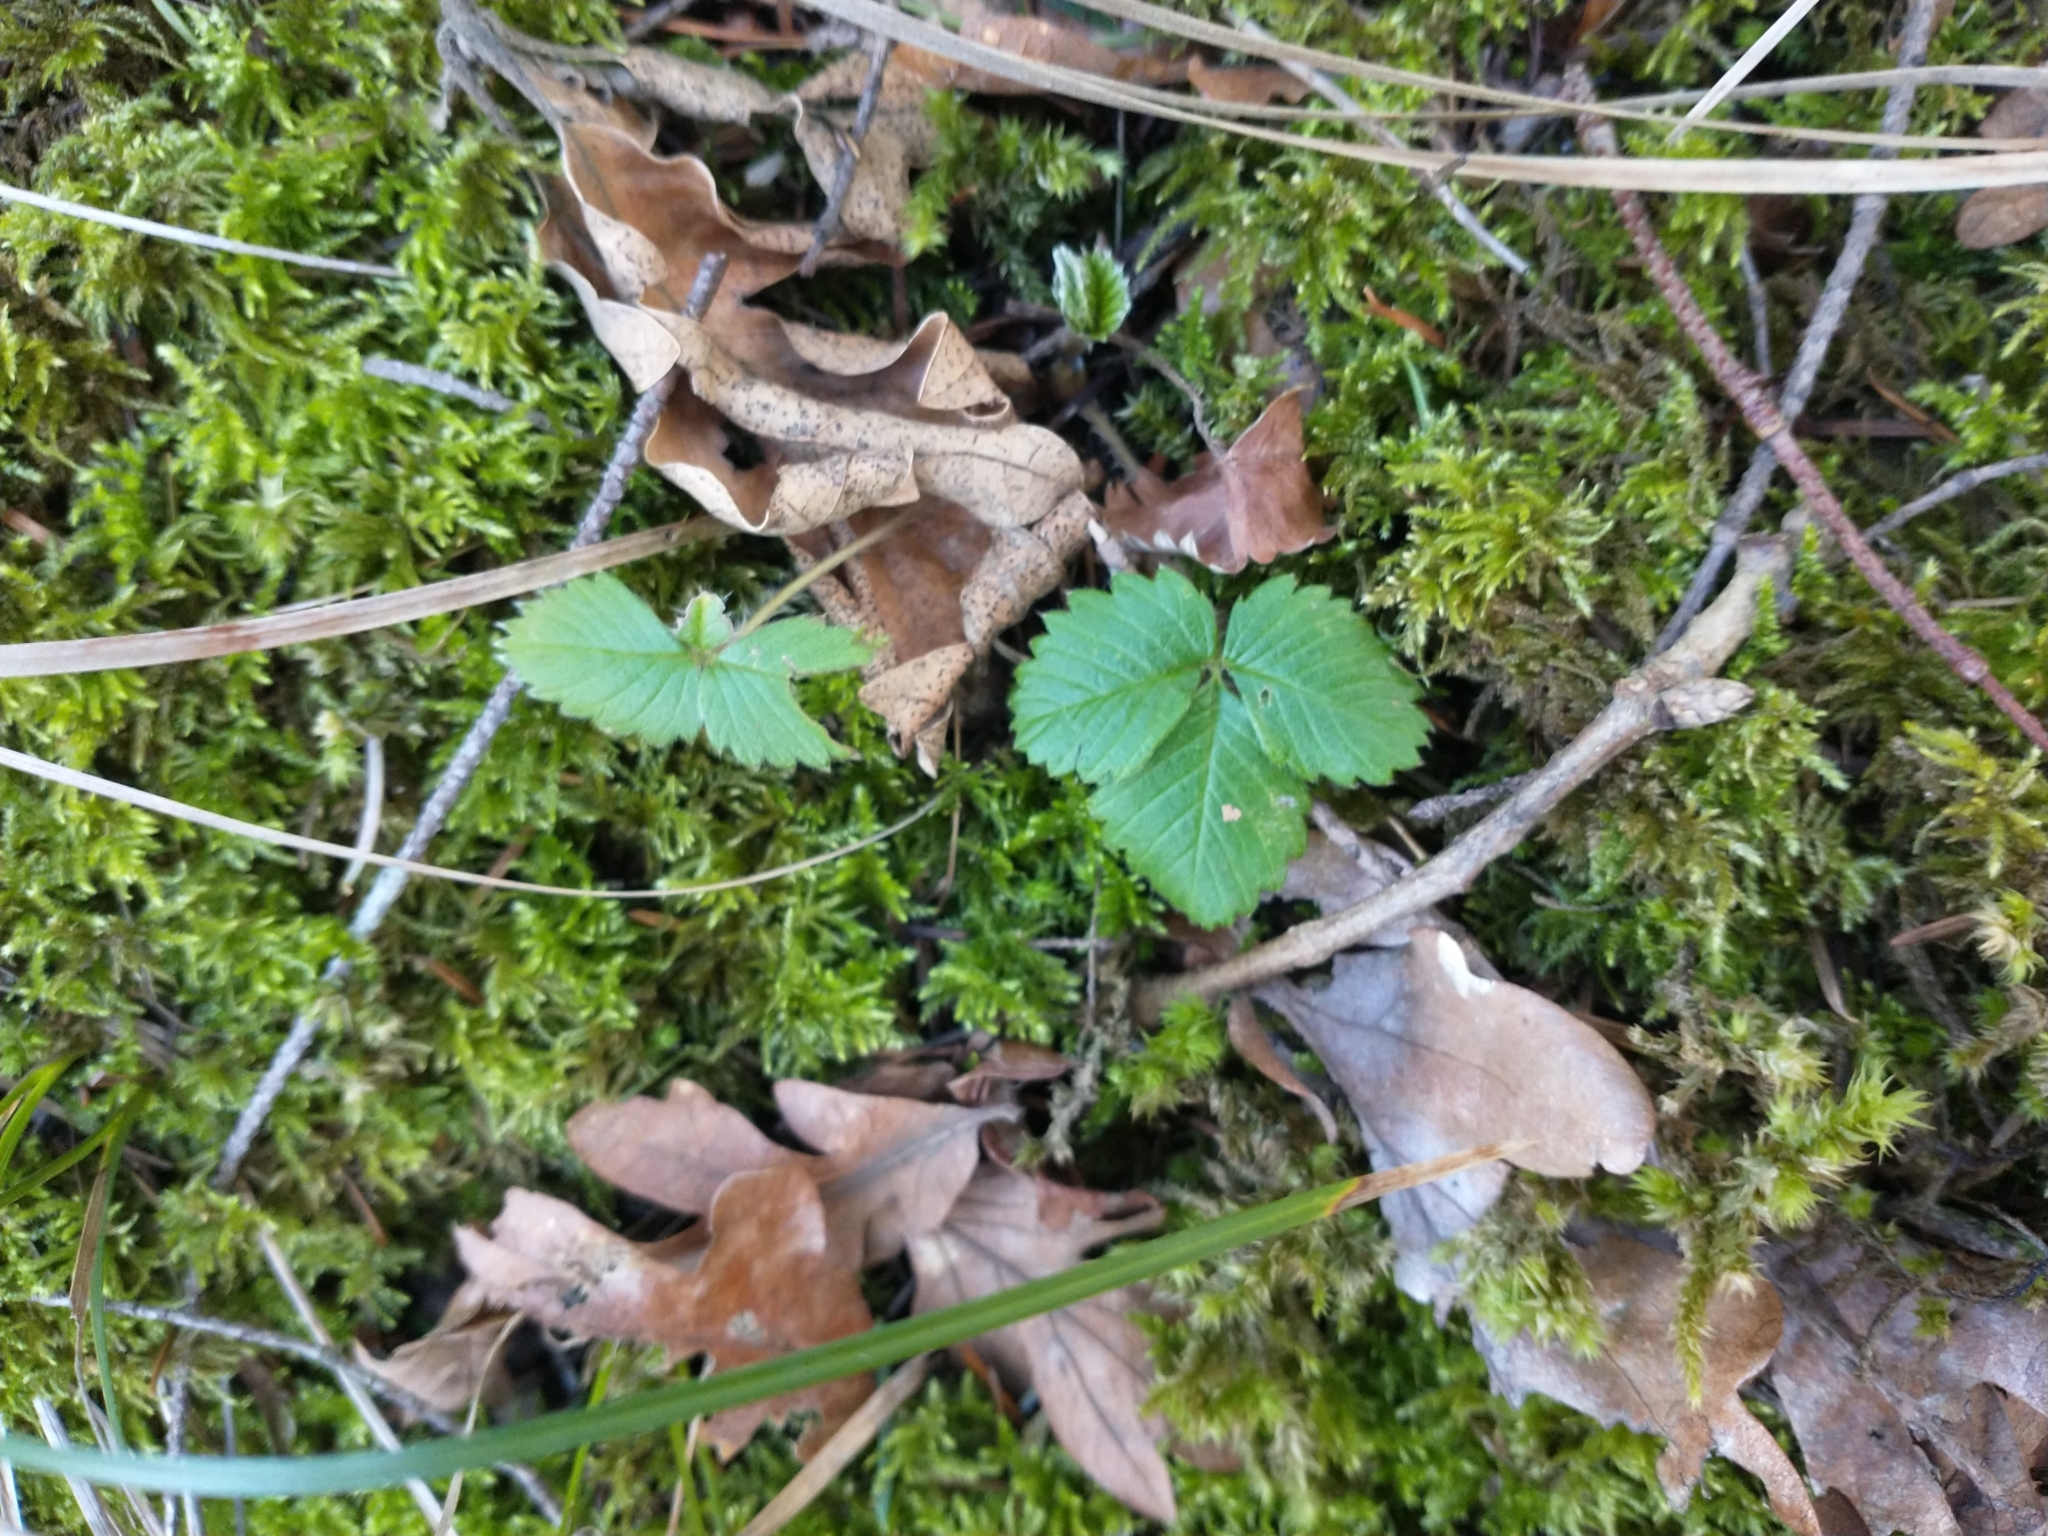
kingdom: Plantae
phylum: Tracheophyta
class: Magnoliopsida
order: Rosales
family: Rosaceae
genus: Fragaria
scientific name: Fragaria vesca
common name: Wild strawberry
